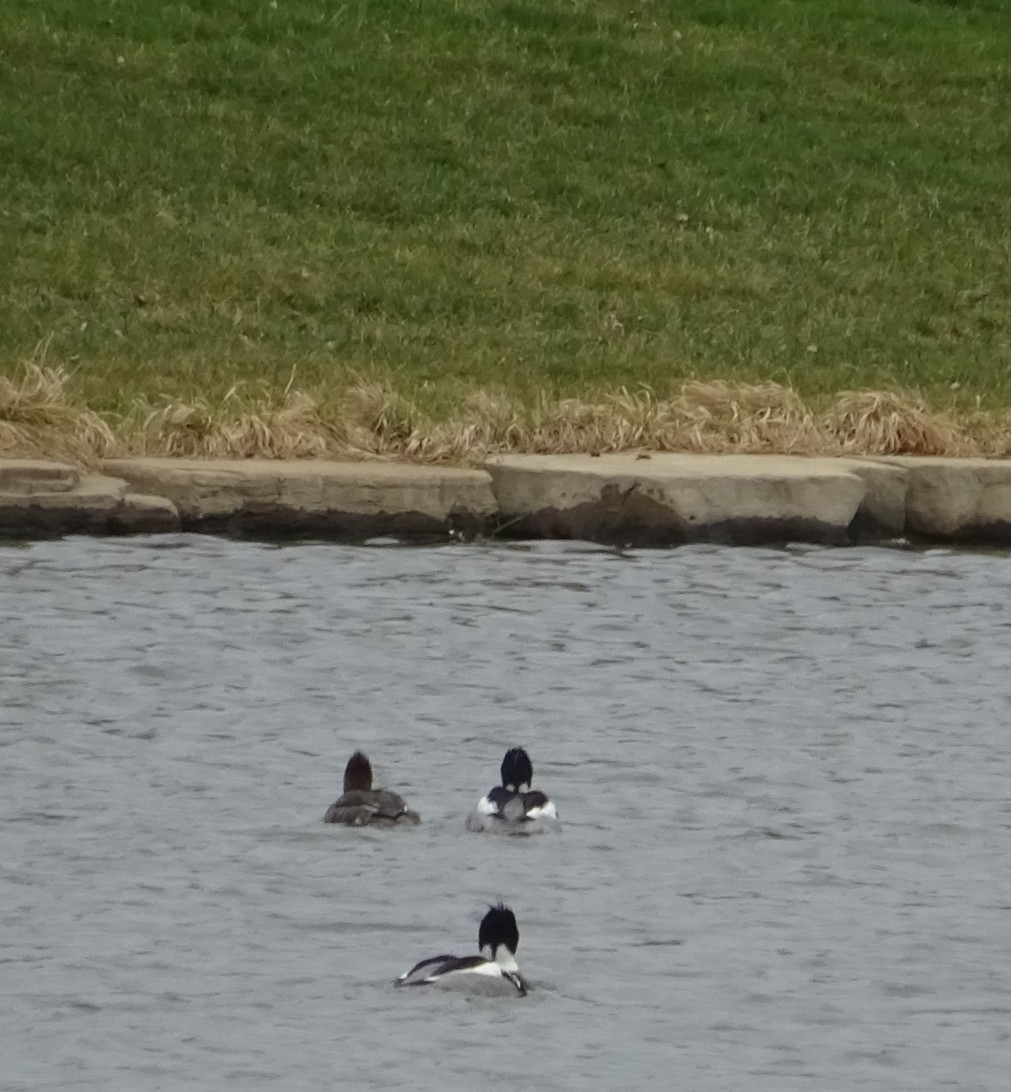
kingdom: Animalia
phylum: Chordata
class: Aves
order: Anseriformes
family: Anatidae
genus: Mergus
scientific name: Mergus serrator
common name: Red-breasted merganser
